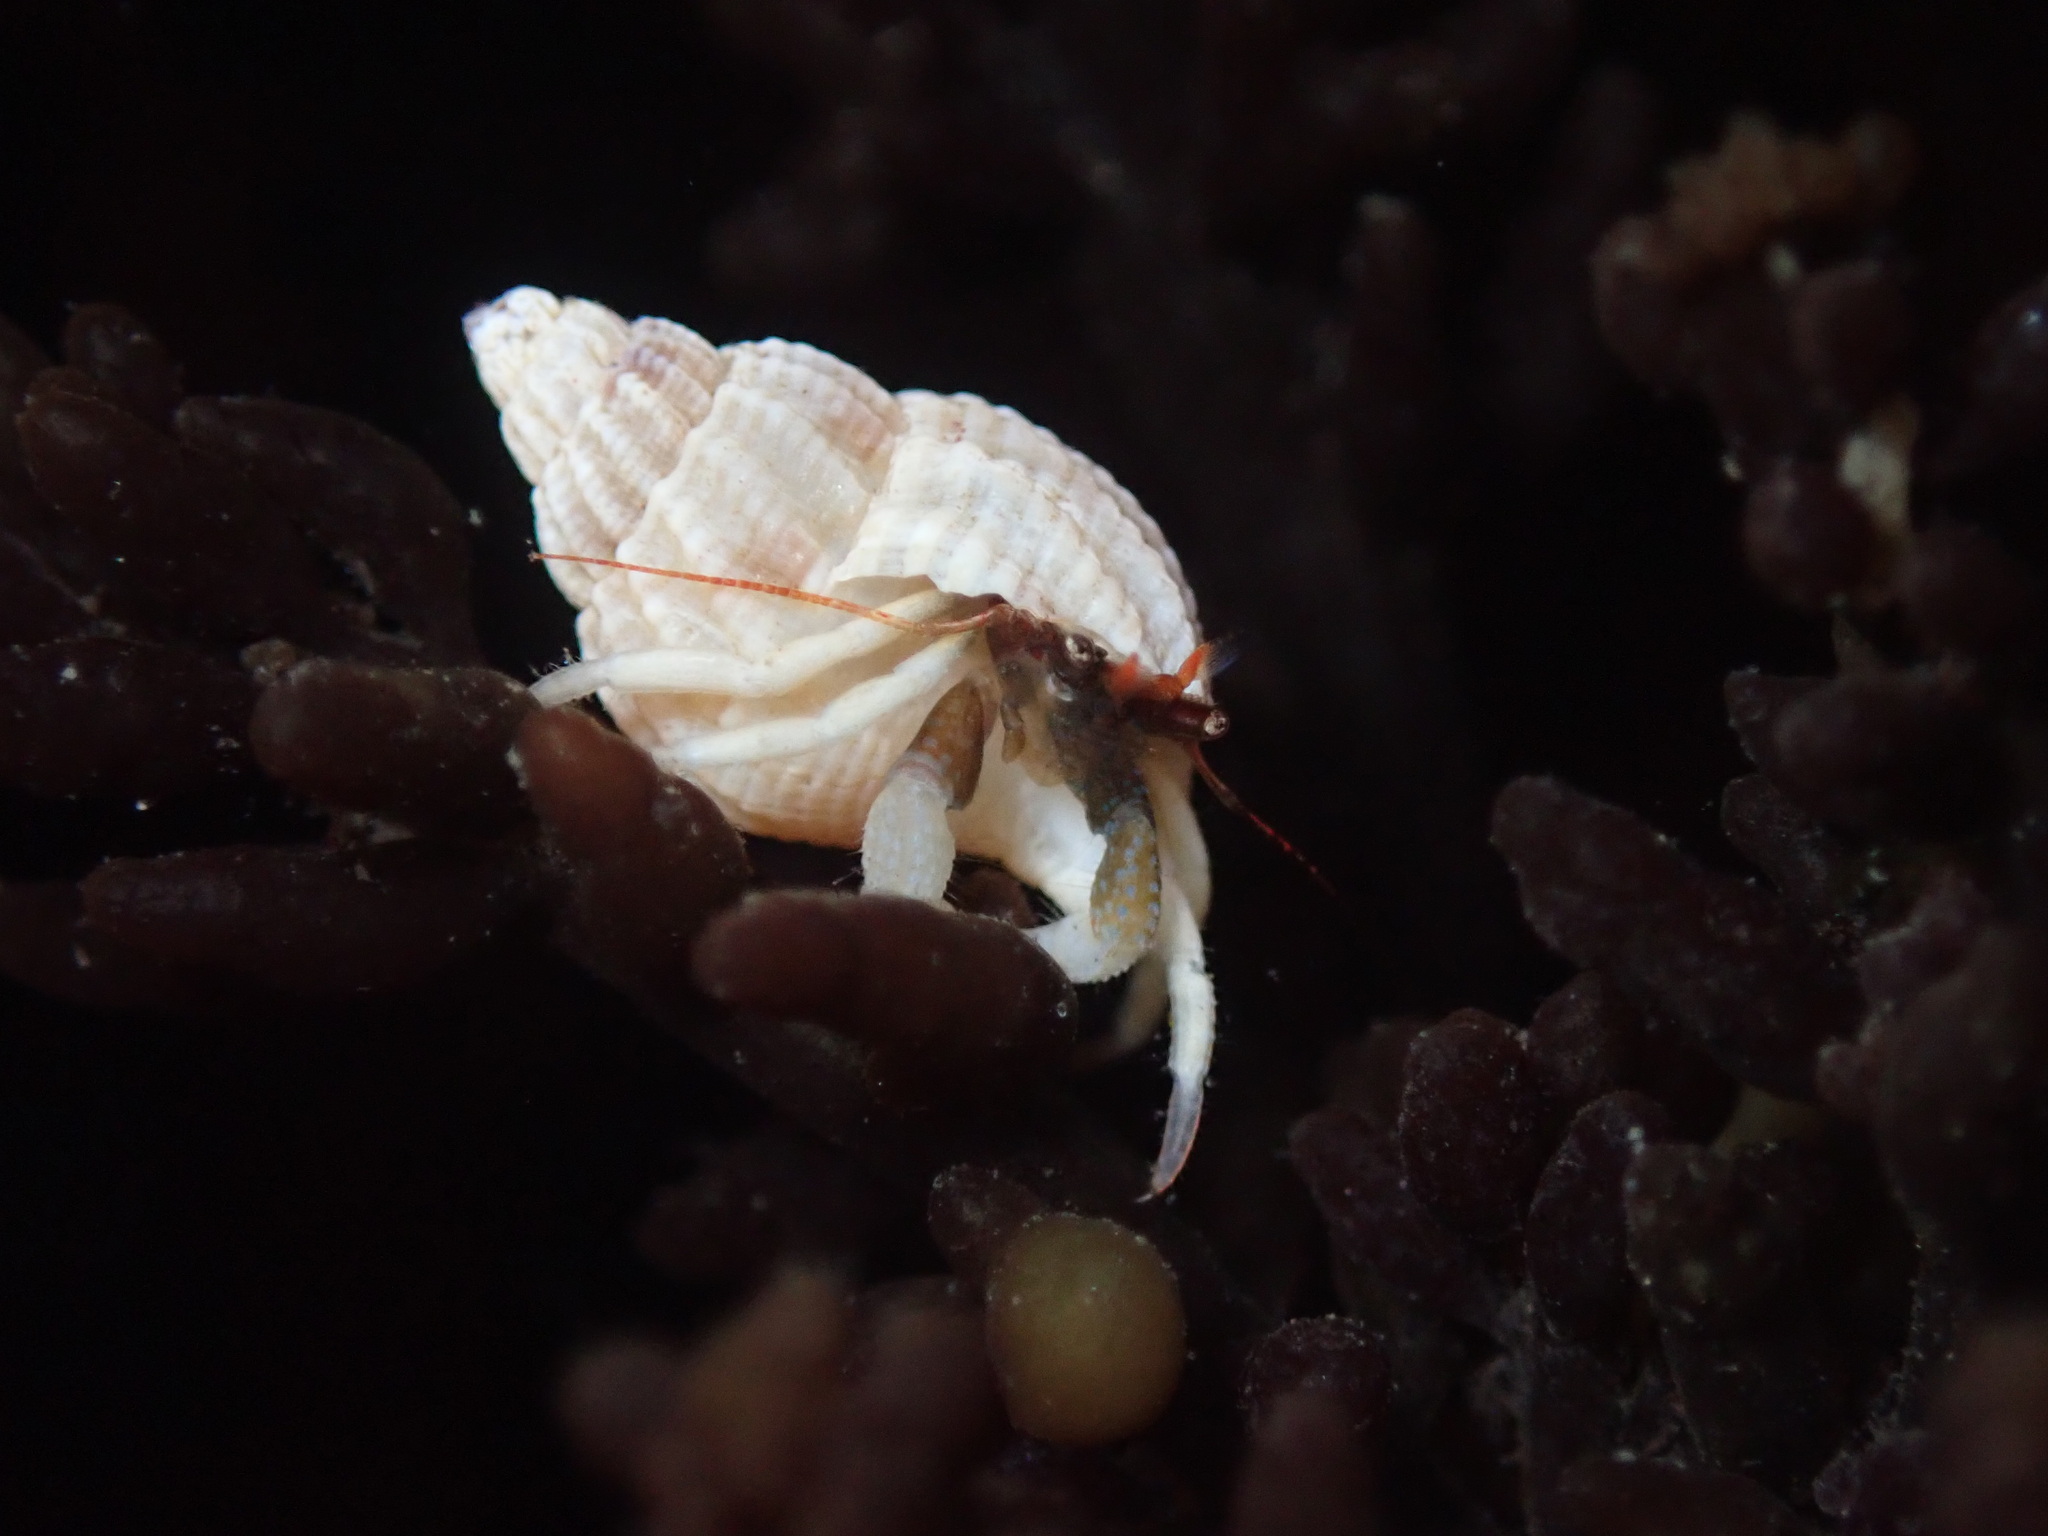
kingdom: Animalia
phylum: Arthropoda
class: Malacostraca
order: Decapoda
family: Paguridae
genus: Pagurus
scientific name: Pagurus granosimanus
